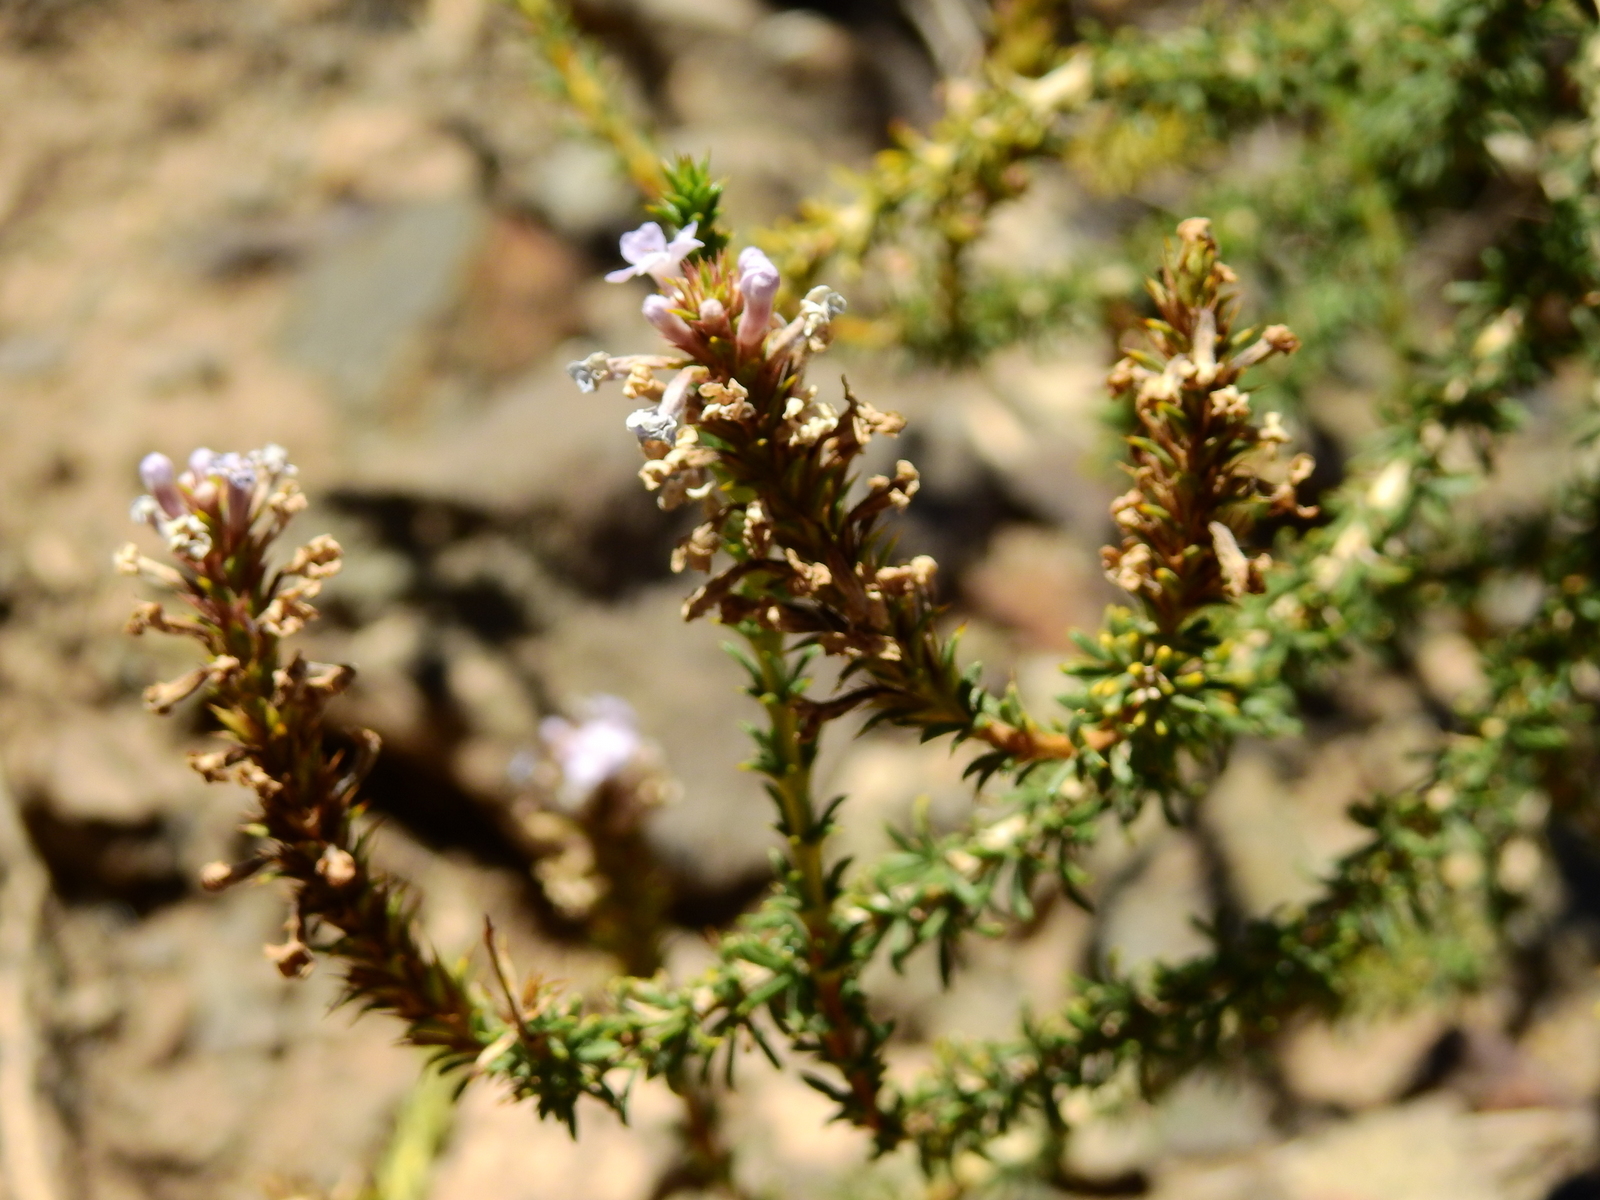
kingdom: Plantae
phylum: Tracheophyta
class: Magnoliopsida
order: Lamiales
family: Verbenaceae
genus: Mulguraea
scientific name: Mulguraea asparagoides
